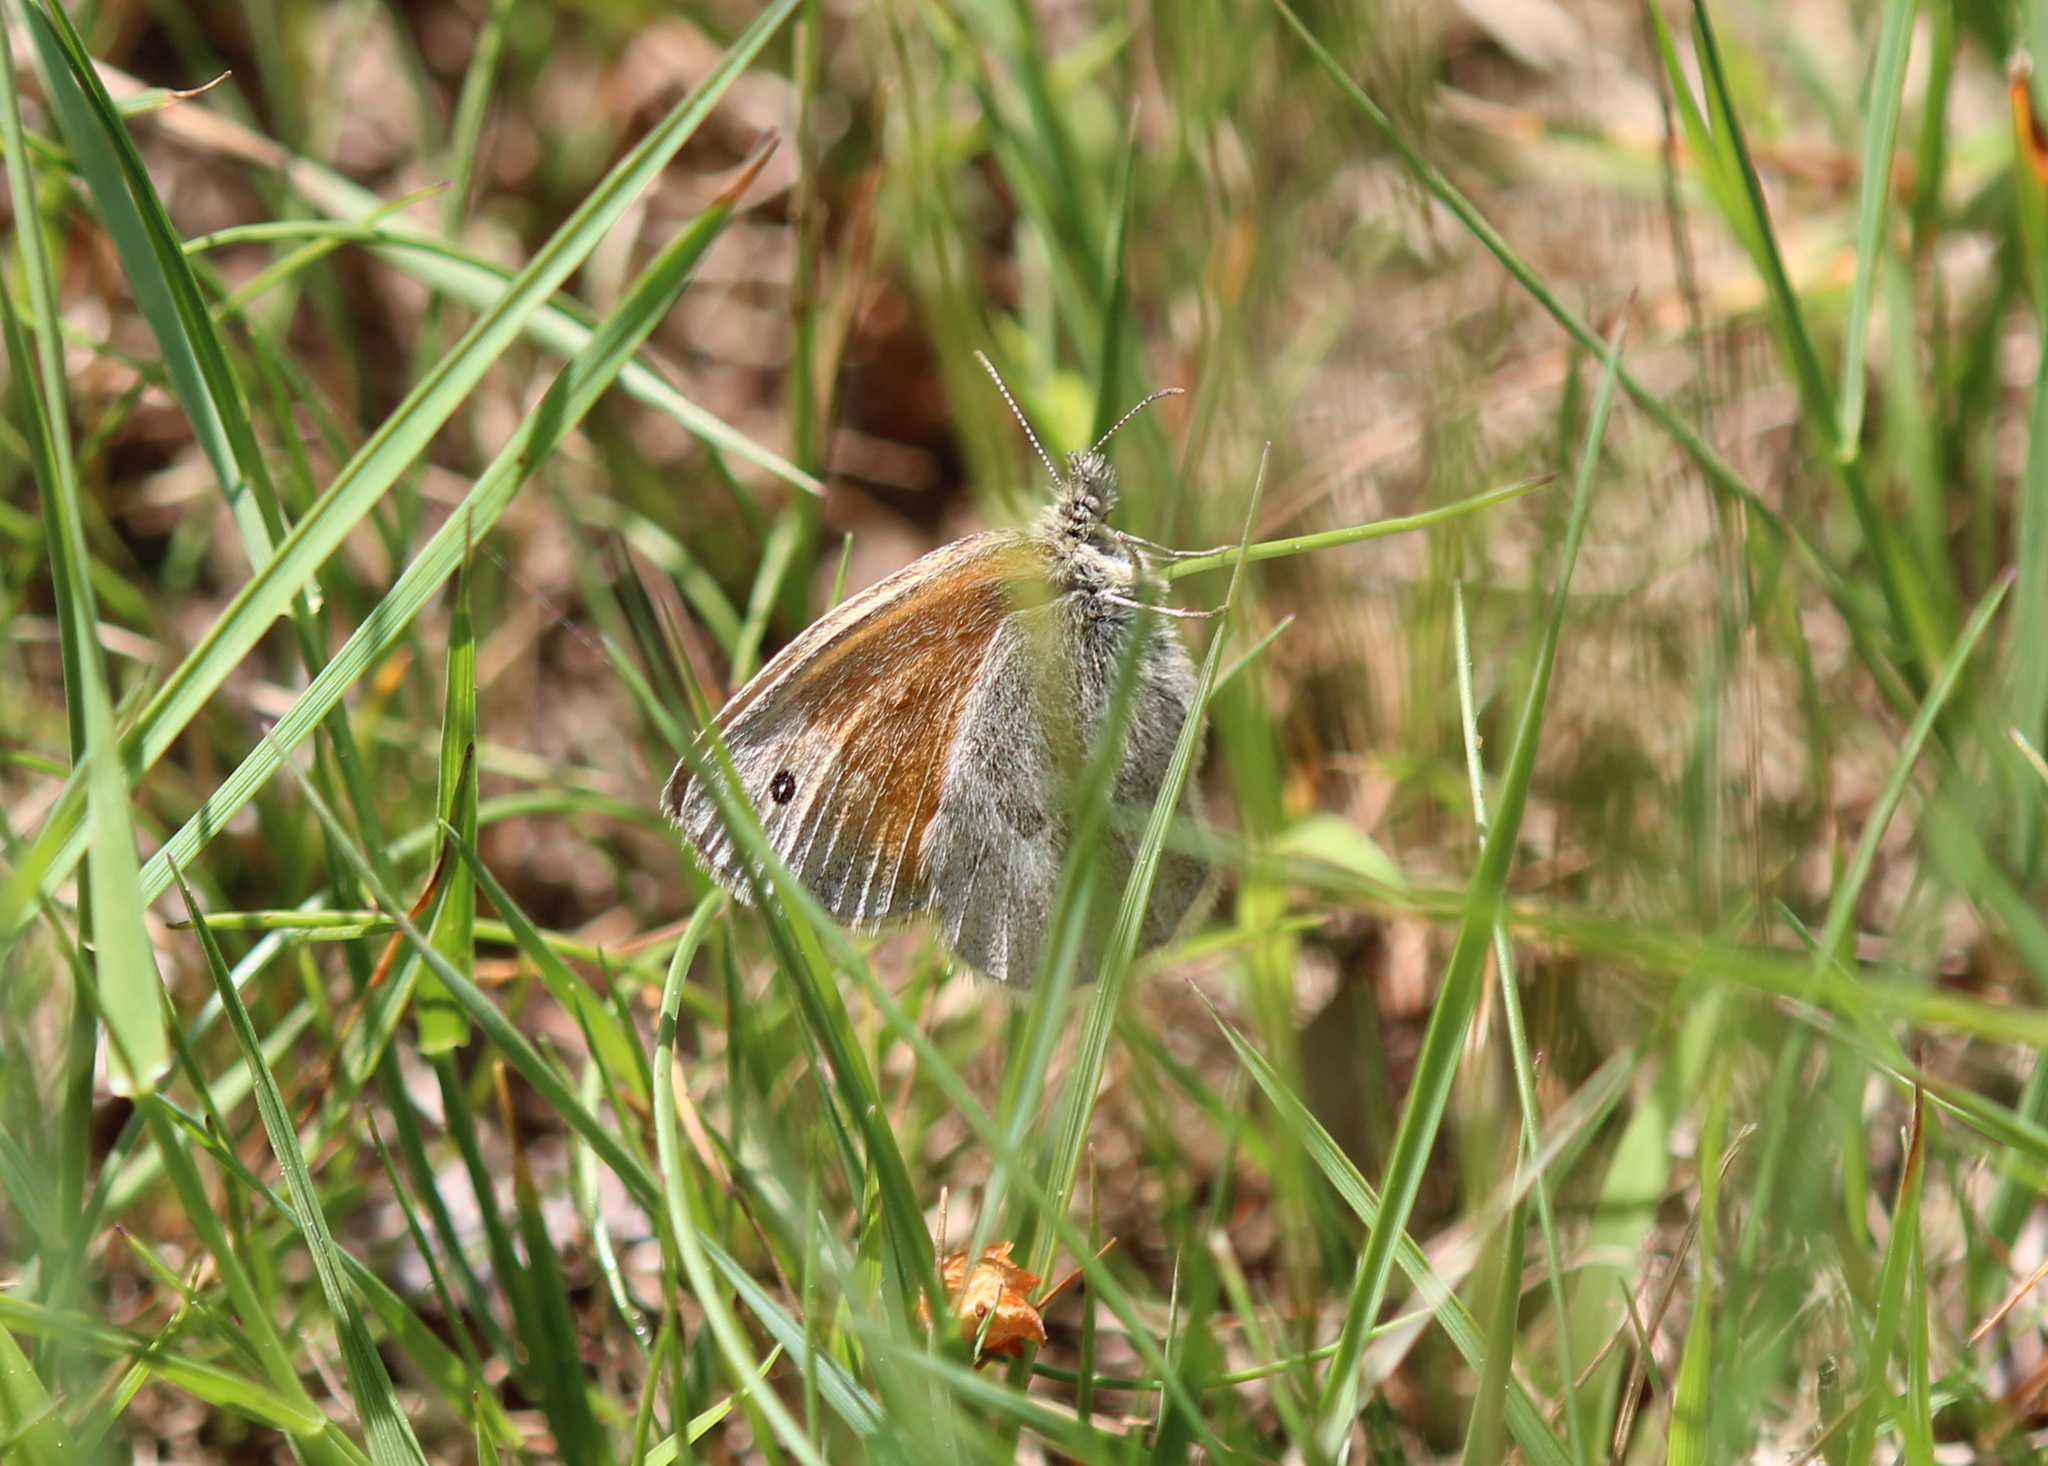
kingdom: Animalia
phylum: Arthropoda
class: Insecta
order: Lepidoptera
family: Nymphalidae
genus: Coenonympha
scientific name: Coenonympha california
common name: Common ringlet
